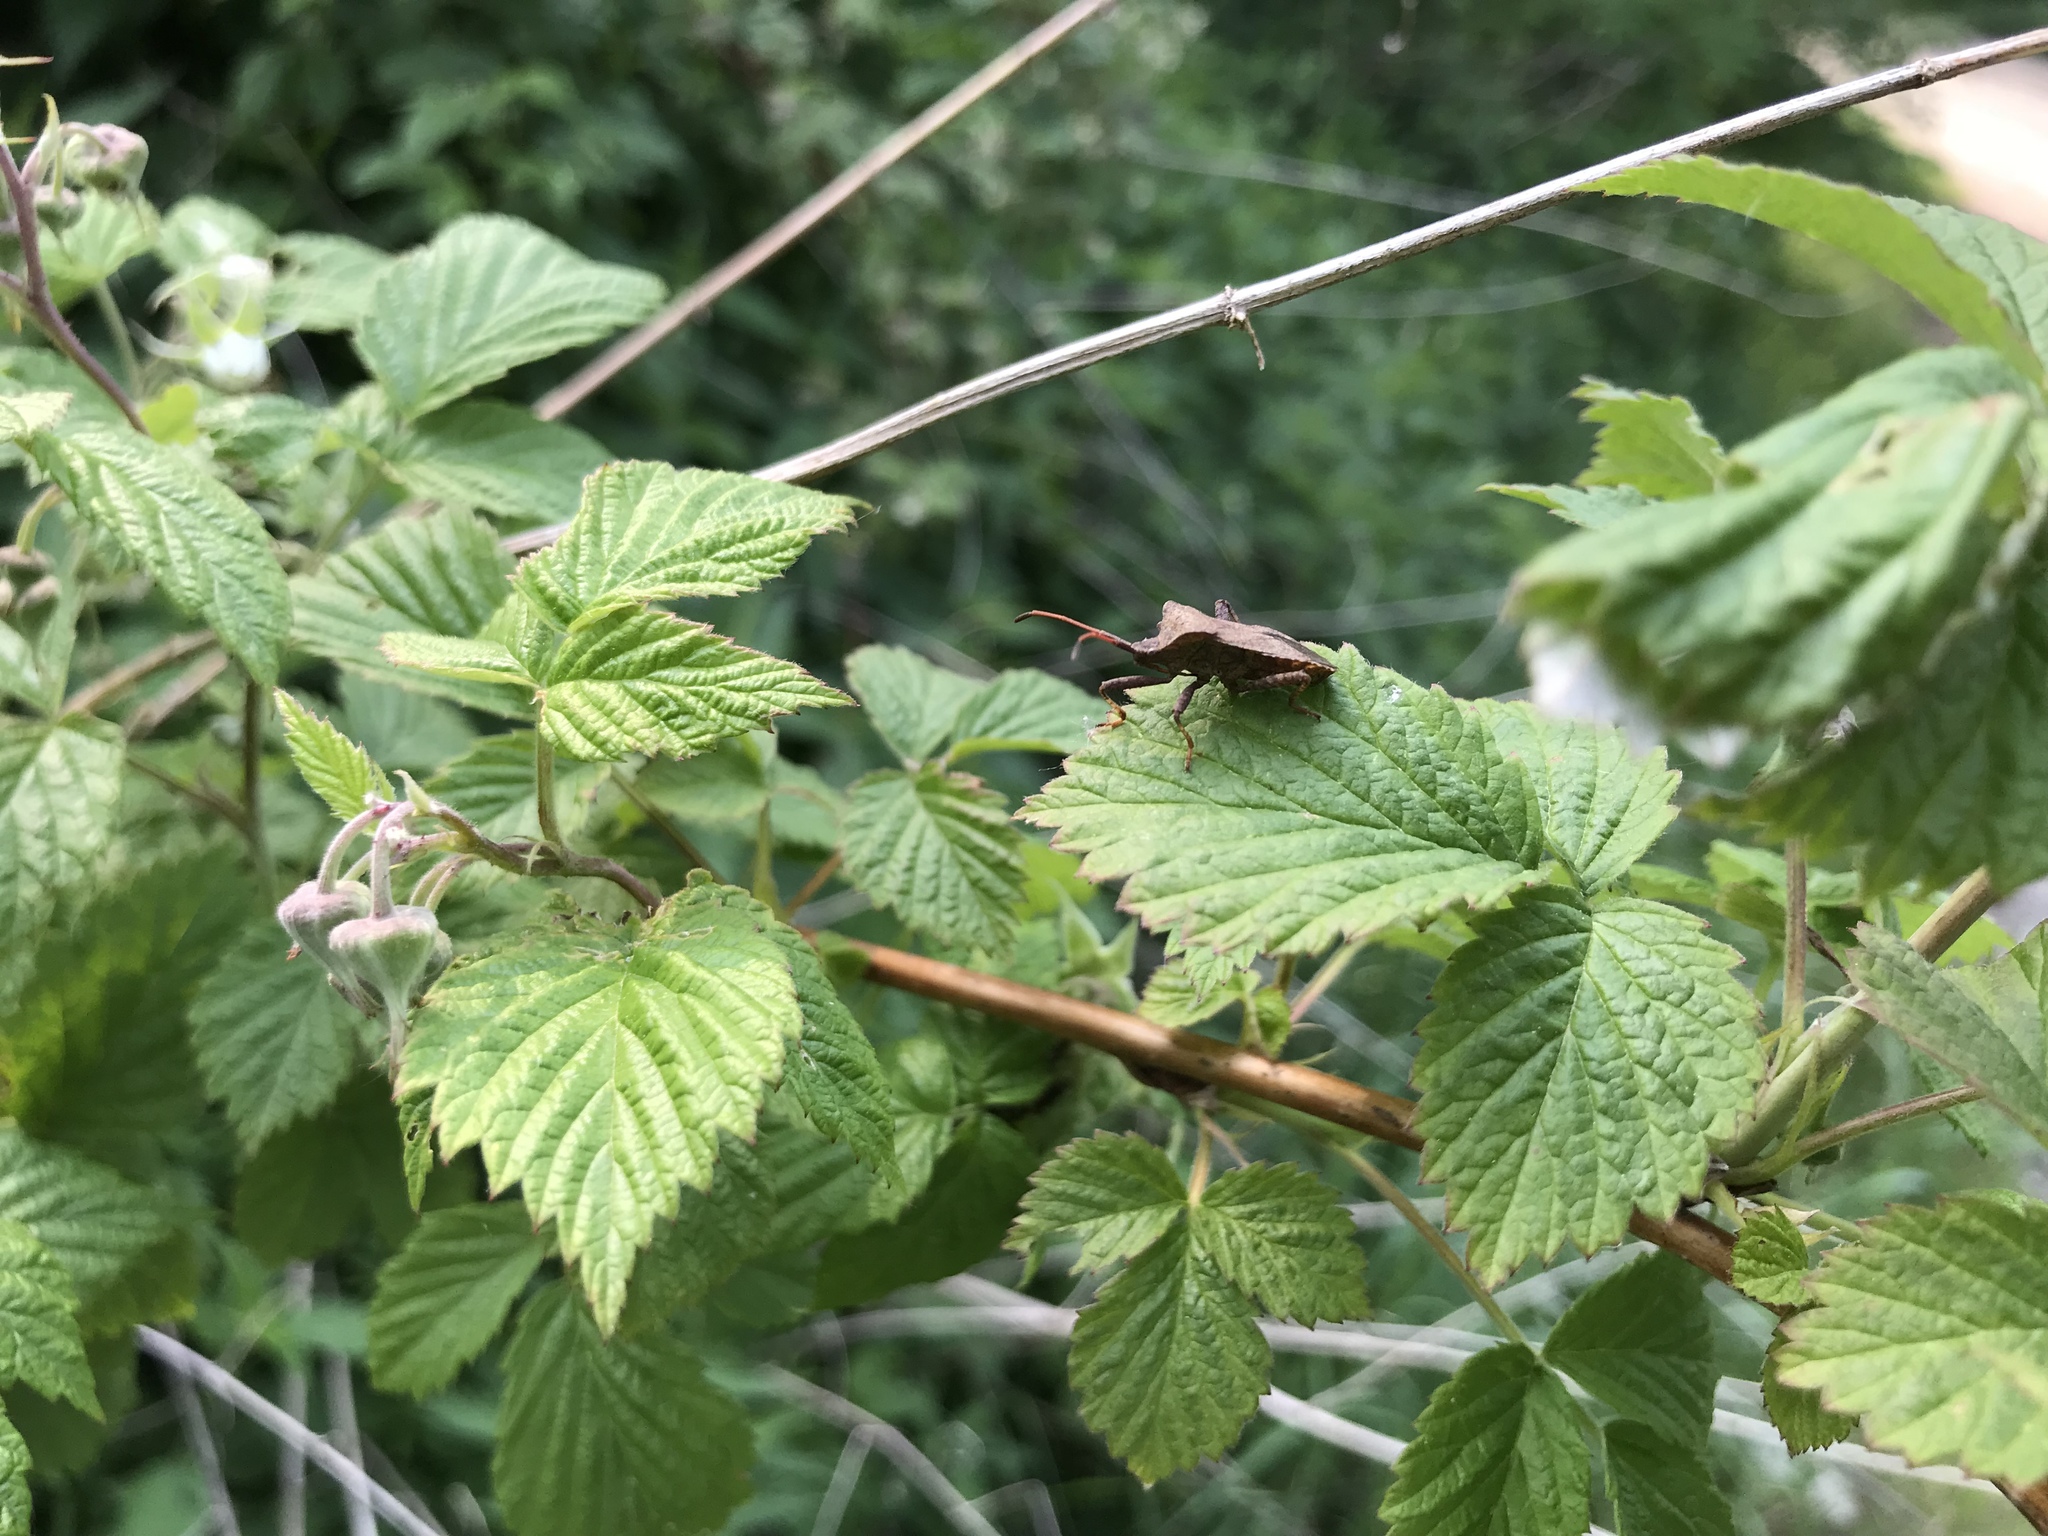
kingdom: Animalia
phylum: Arthropoda
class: Insecta
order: Hemiptera
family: Coreidae
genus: Coreus
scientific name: Coreus marginatus
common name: Dock bug
